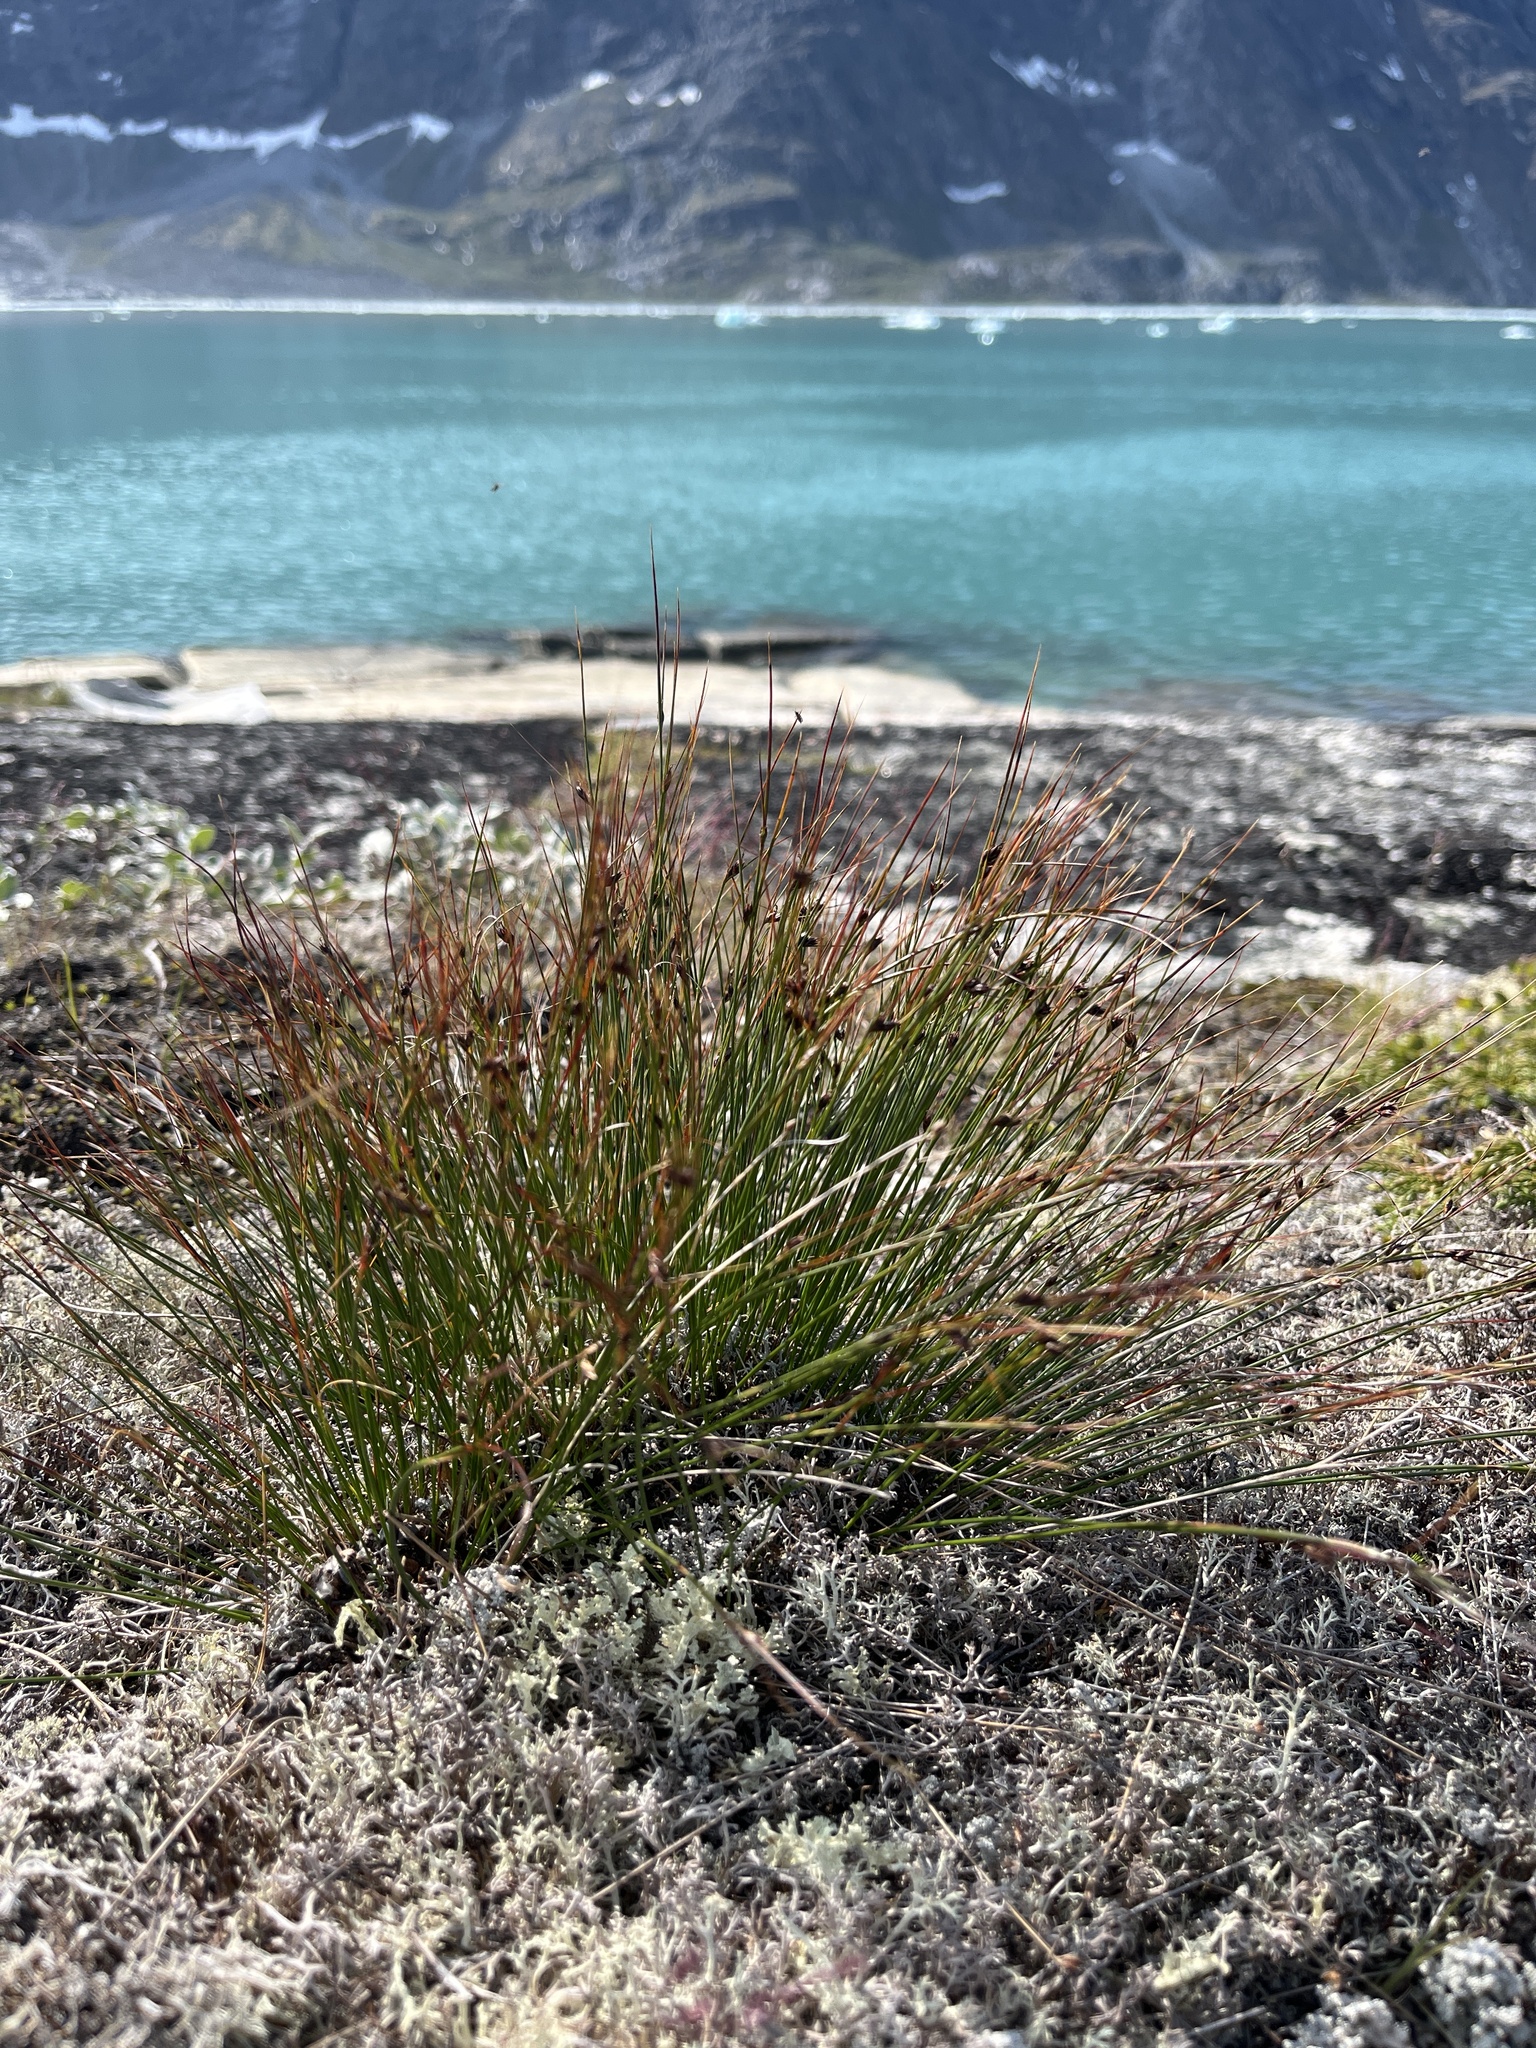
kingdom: Plantae
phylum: Tracheophyta
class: Liliopsida
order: Poales
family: Juncaceae
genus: Oreojuncus
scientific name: Oreojuncus trifidus
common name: Highland rush
